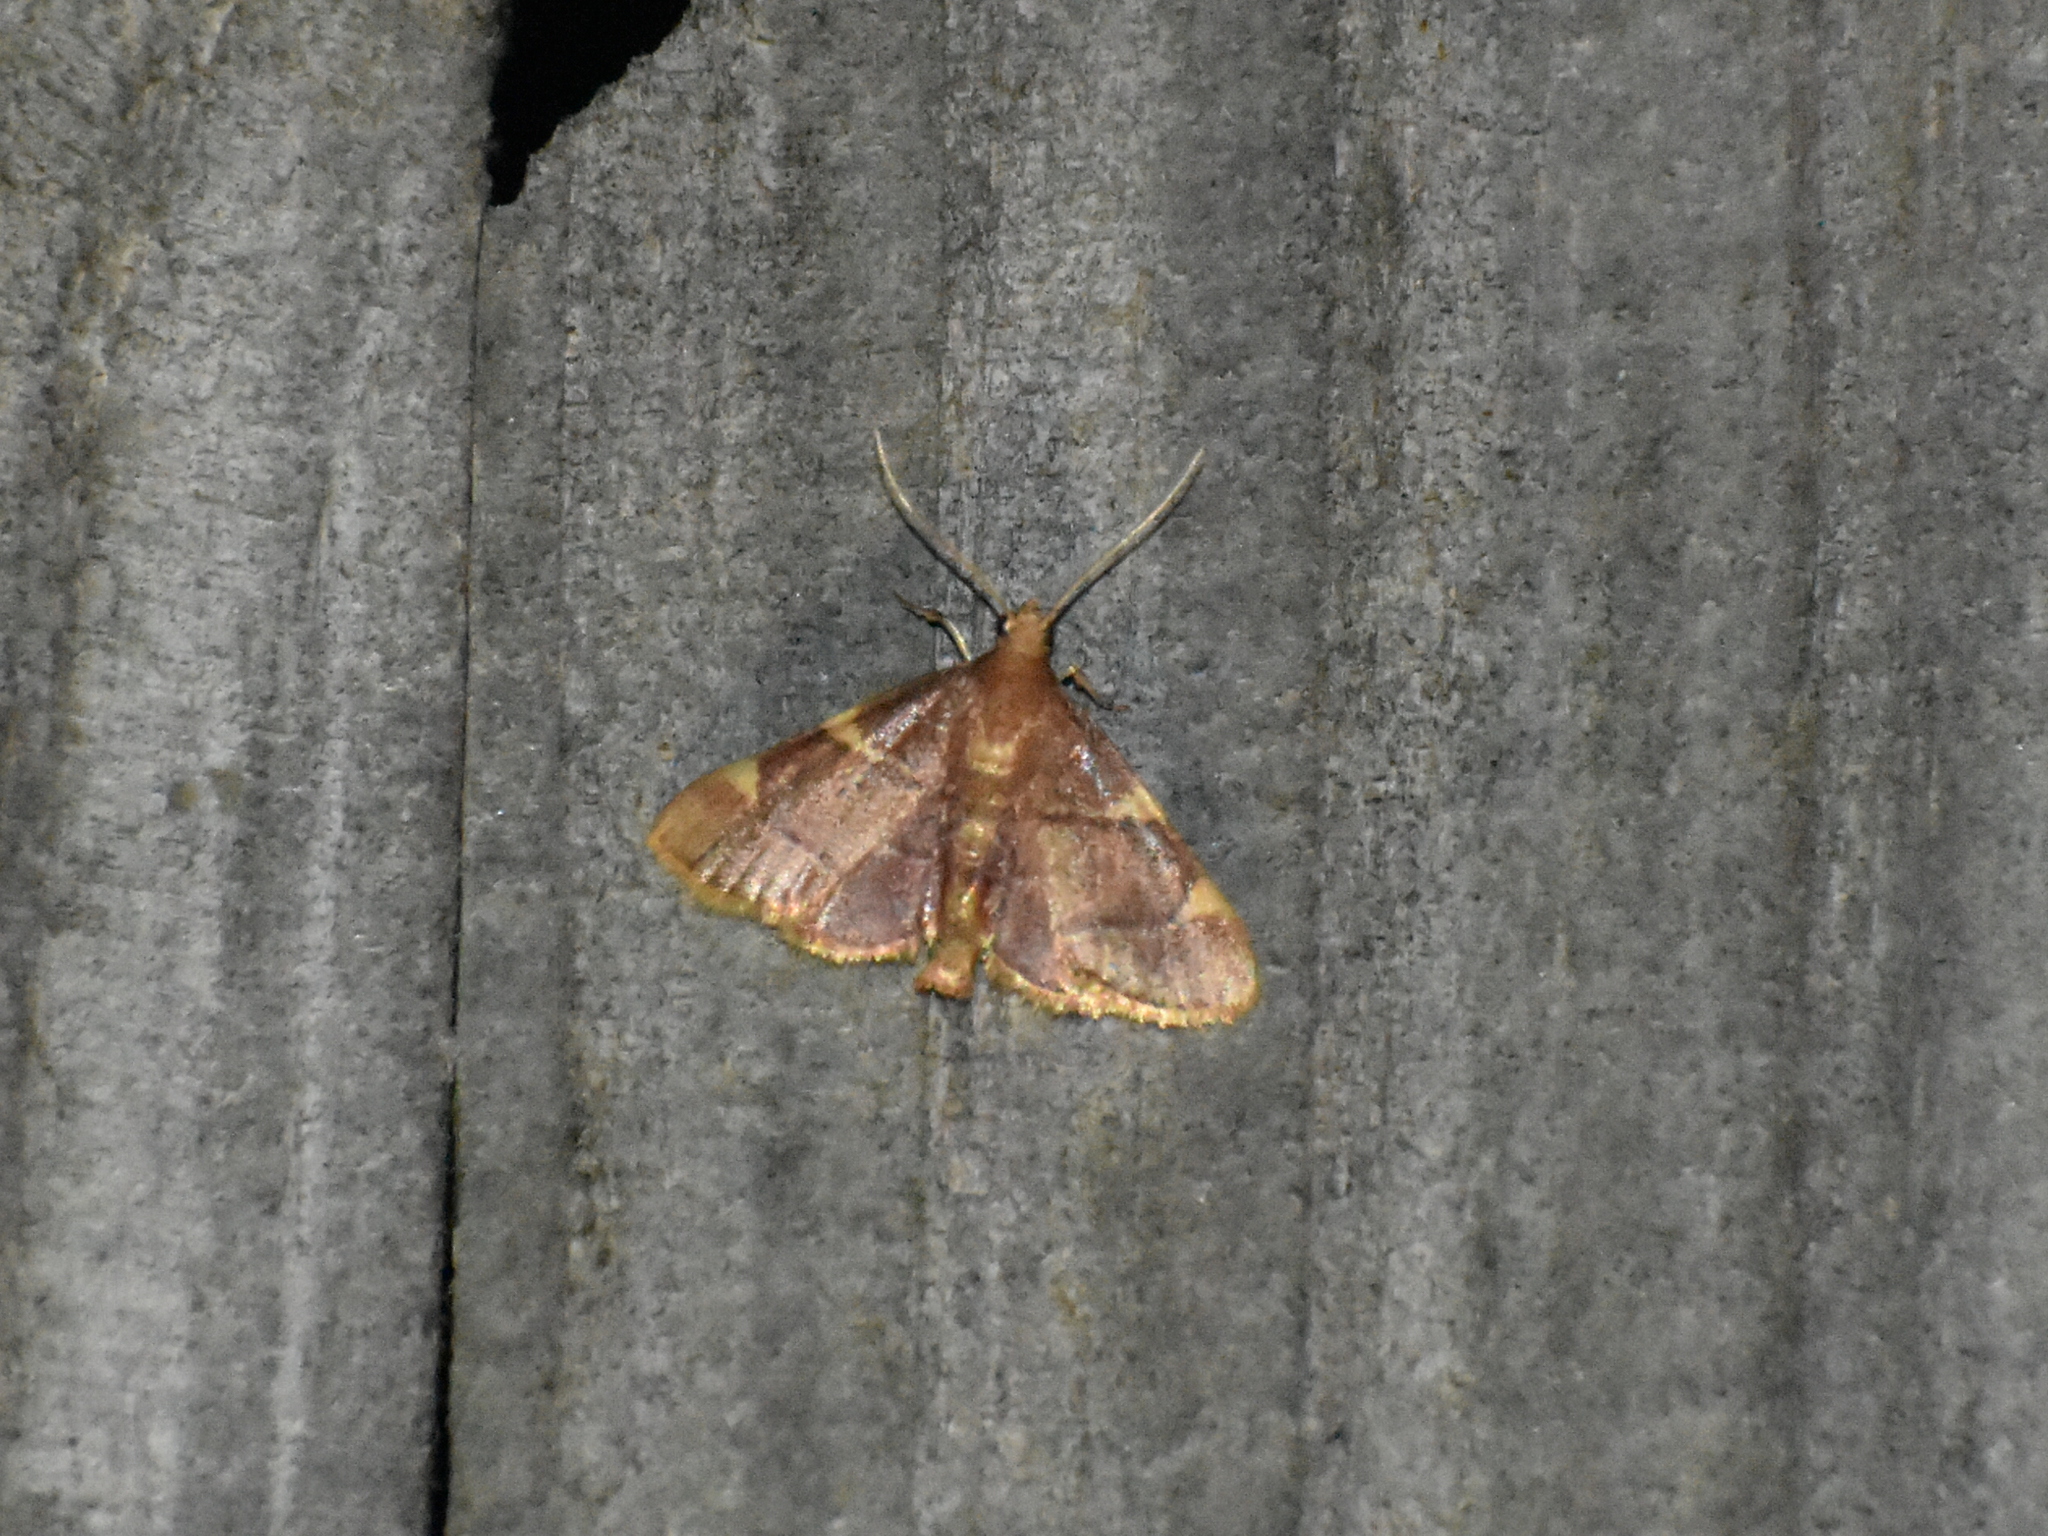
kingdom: Animalia
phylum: Arthropoda
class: Insecta
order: Lepidoptera
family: Pyralidae
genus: Hypsopygia
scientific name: Hypsopygia olinalis
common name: Yellow-fringed dolichomia moth
